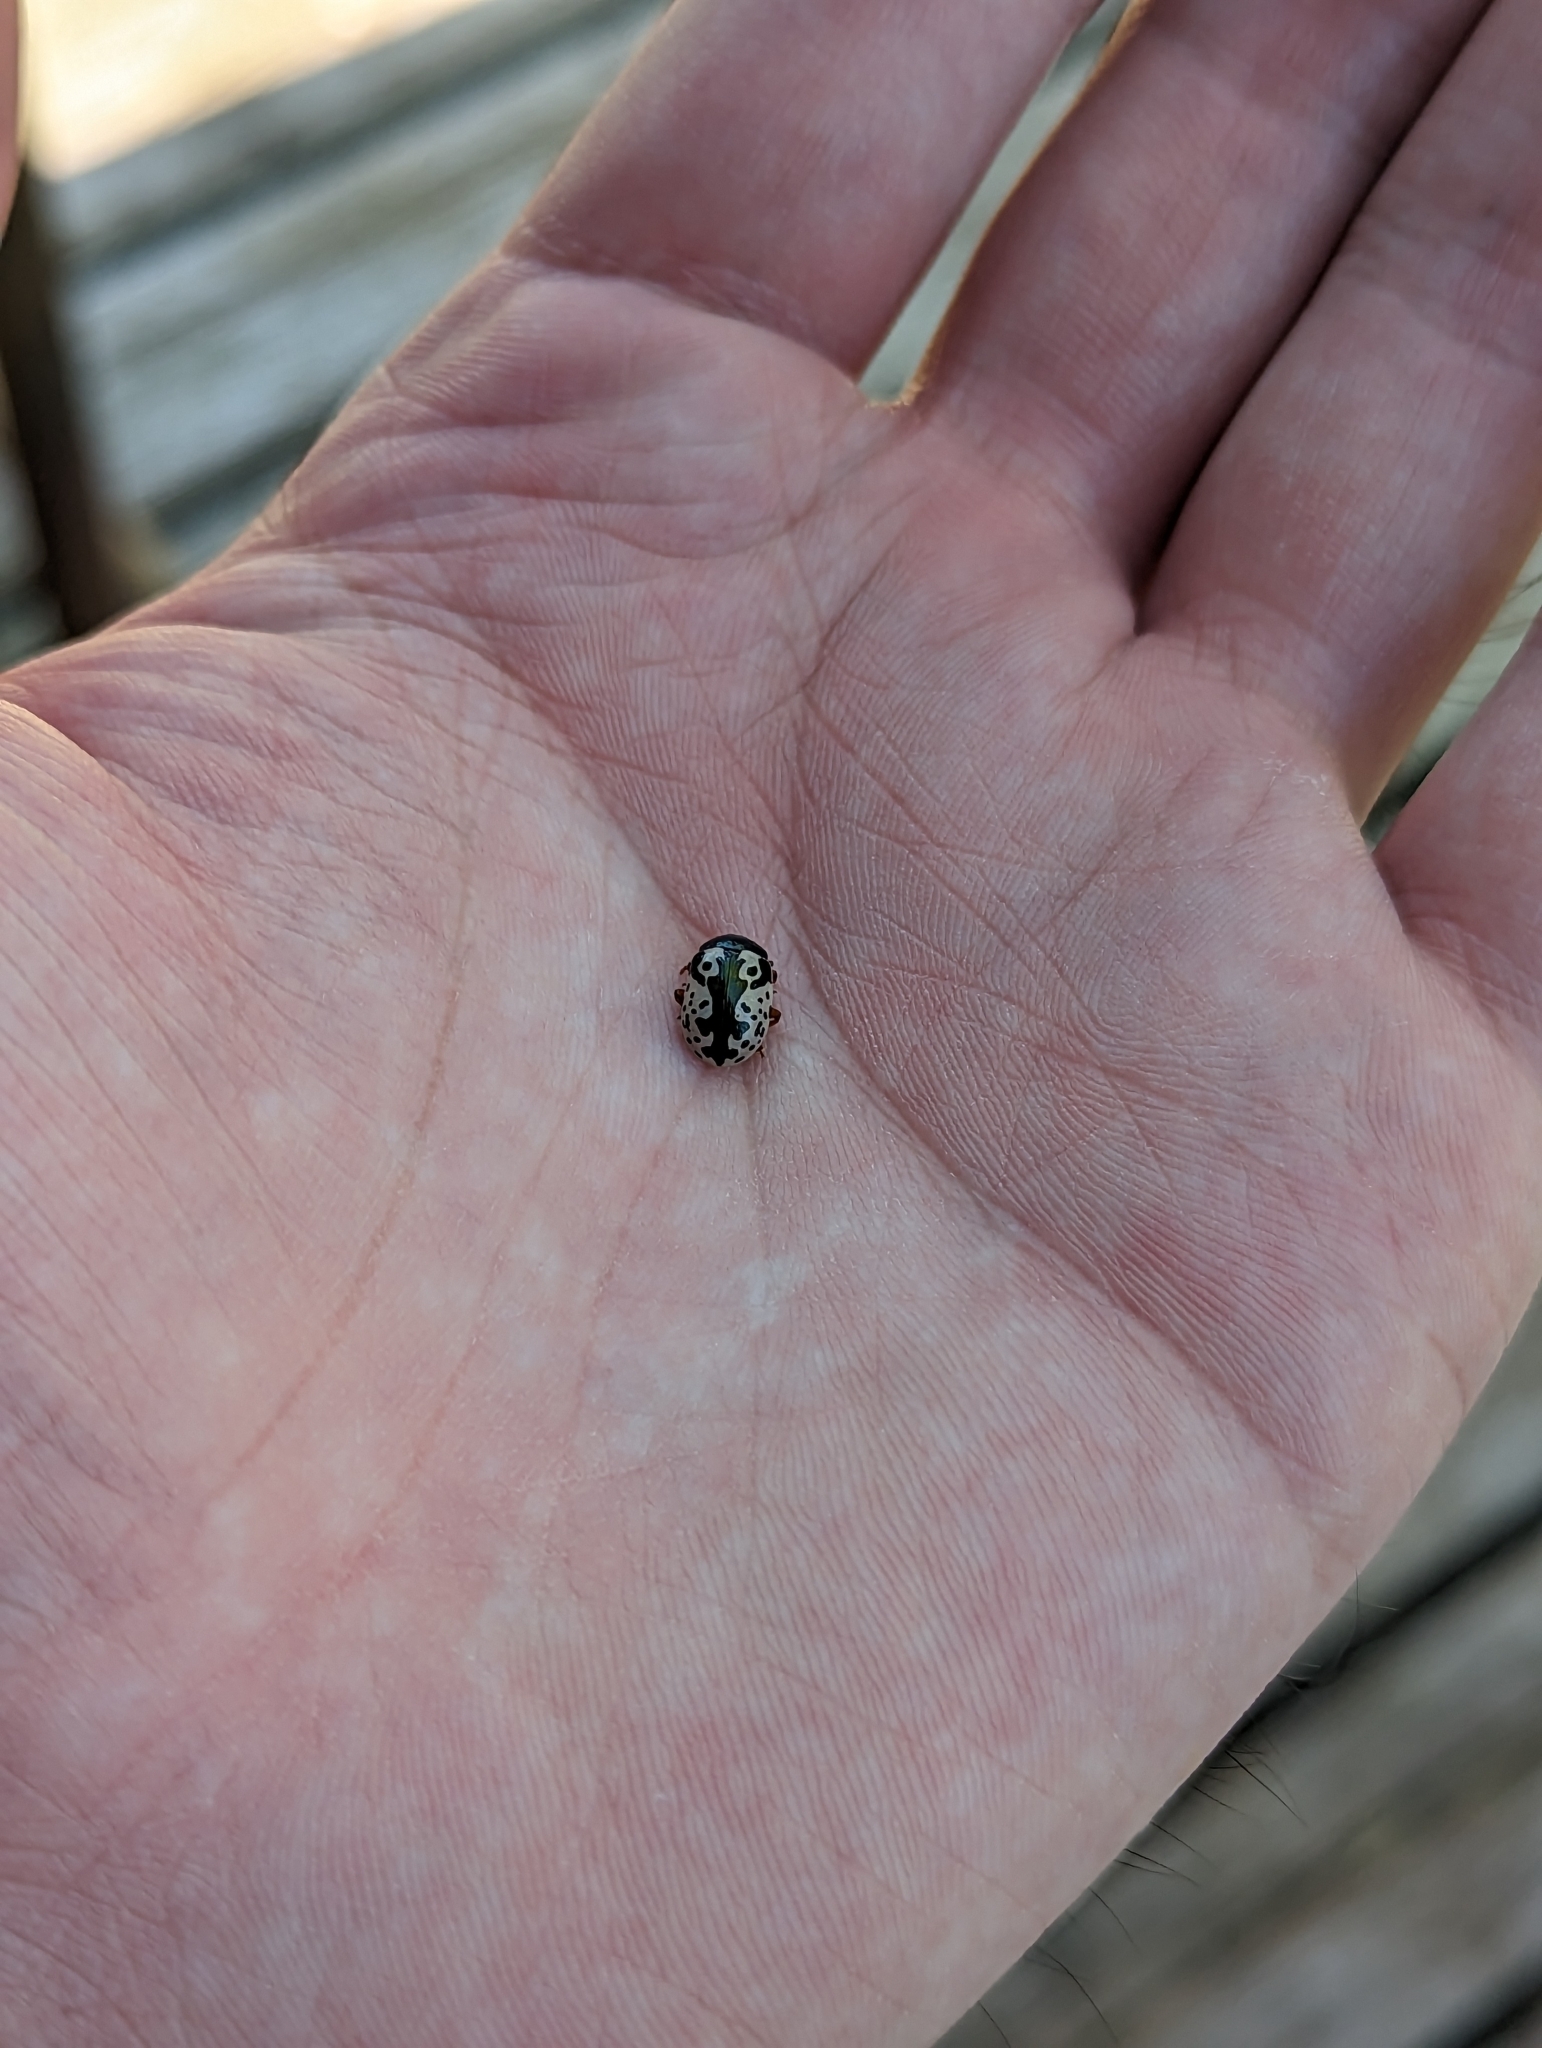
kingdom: Animalia
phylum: Arthropoda
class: Insecta
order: Coleoptera
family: Chrysomelidae
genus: Calligrapha
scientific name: Calligrapha confluens
